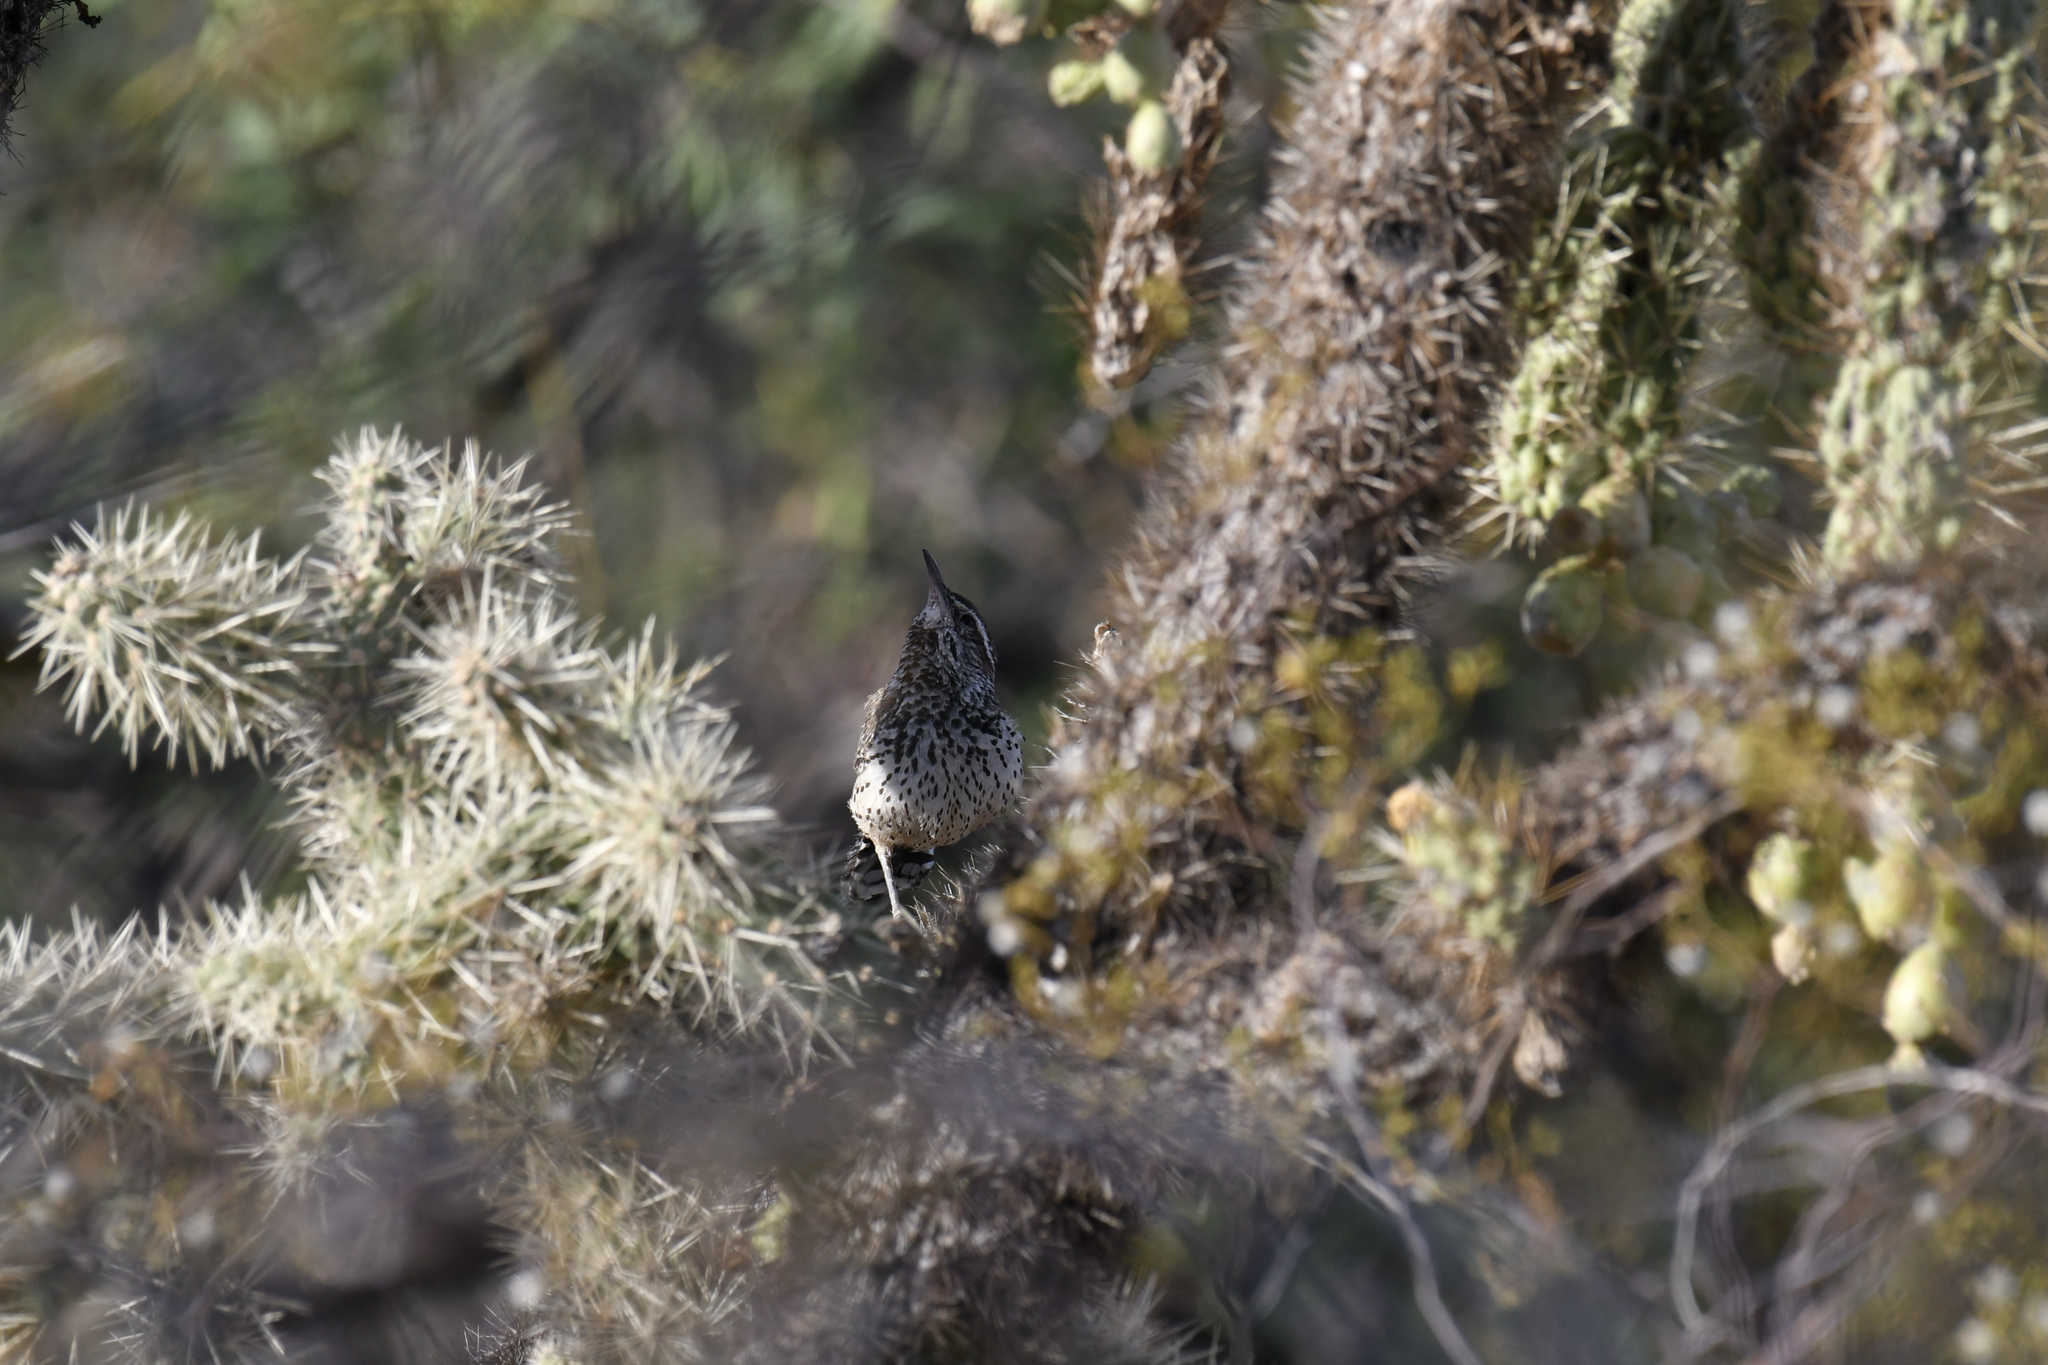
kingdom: Animalia
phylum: Chordata
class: Aves
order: Passeriformes
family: Troglodytidae
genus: Campylorhynchus
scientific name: Campylorhynchus brunneicapillus
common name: Cactus wren
